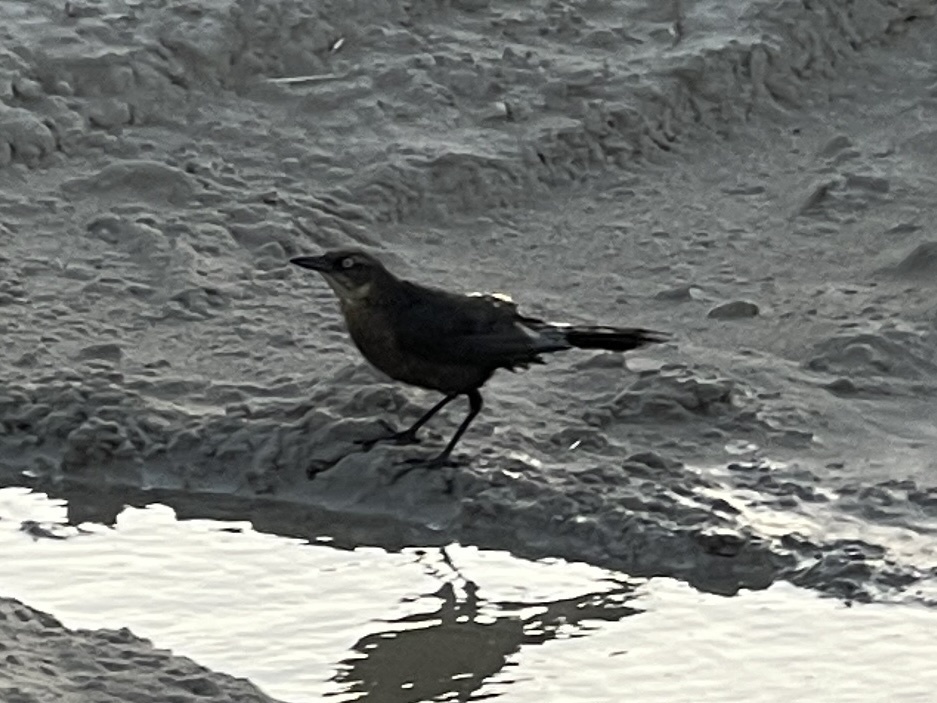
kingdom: Animalia
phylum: Chordata
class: Aves
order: Passeriformes
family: Icteridae
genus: Quiscalus
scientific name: Quiscalus mexicanus
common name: Great-tailed grackle
